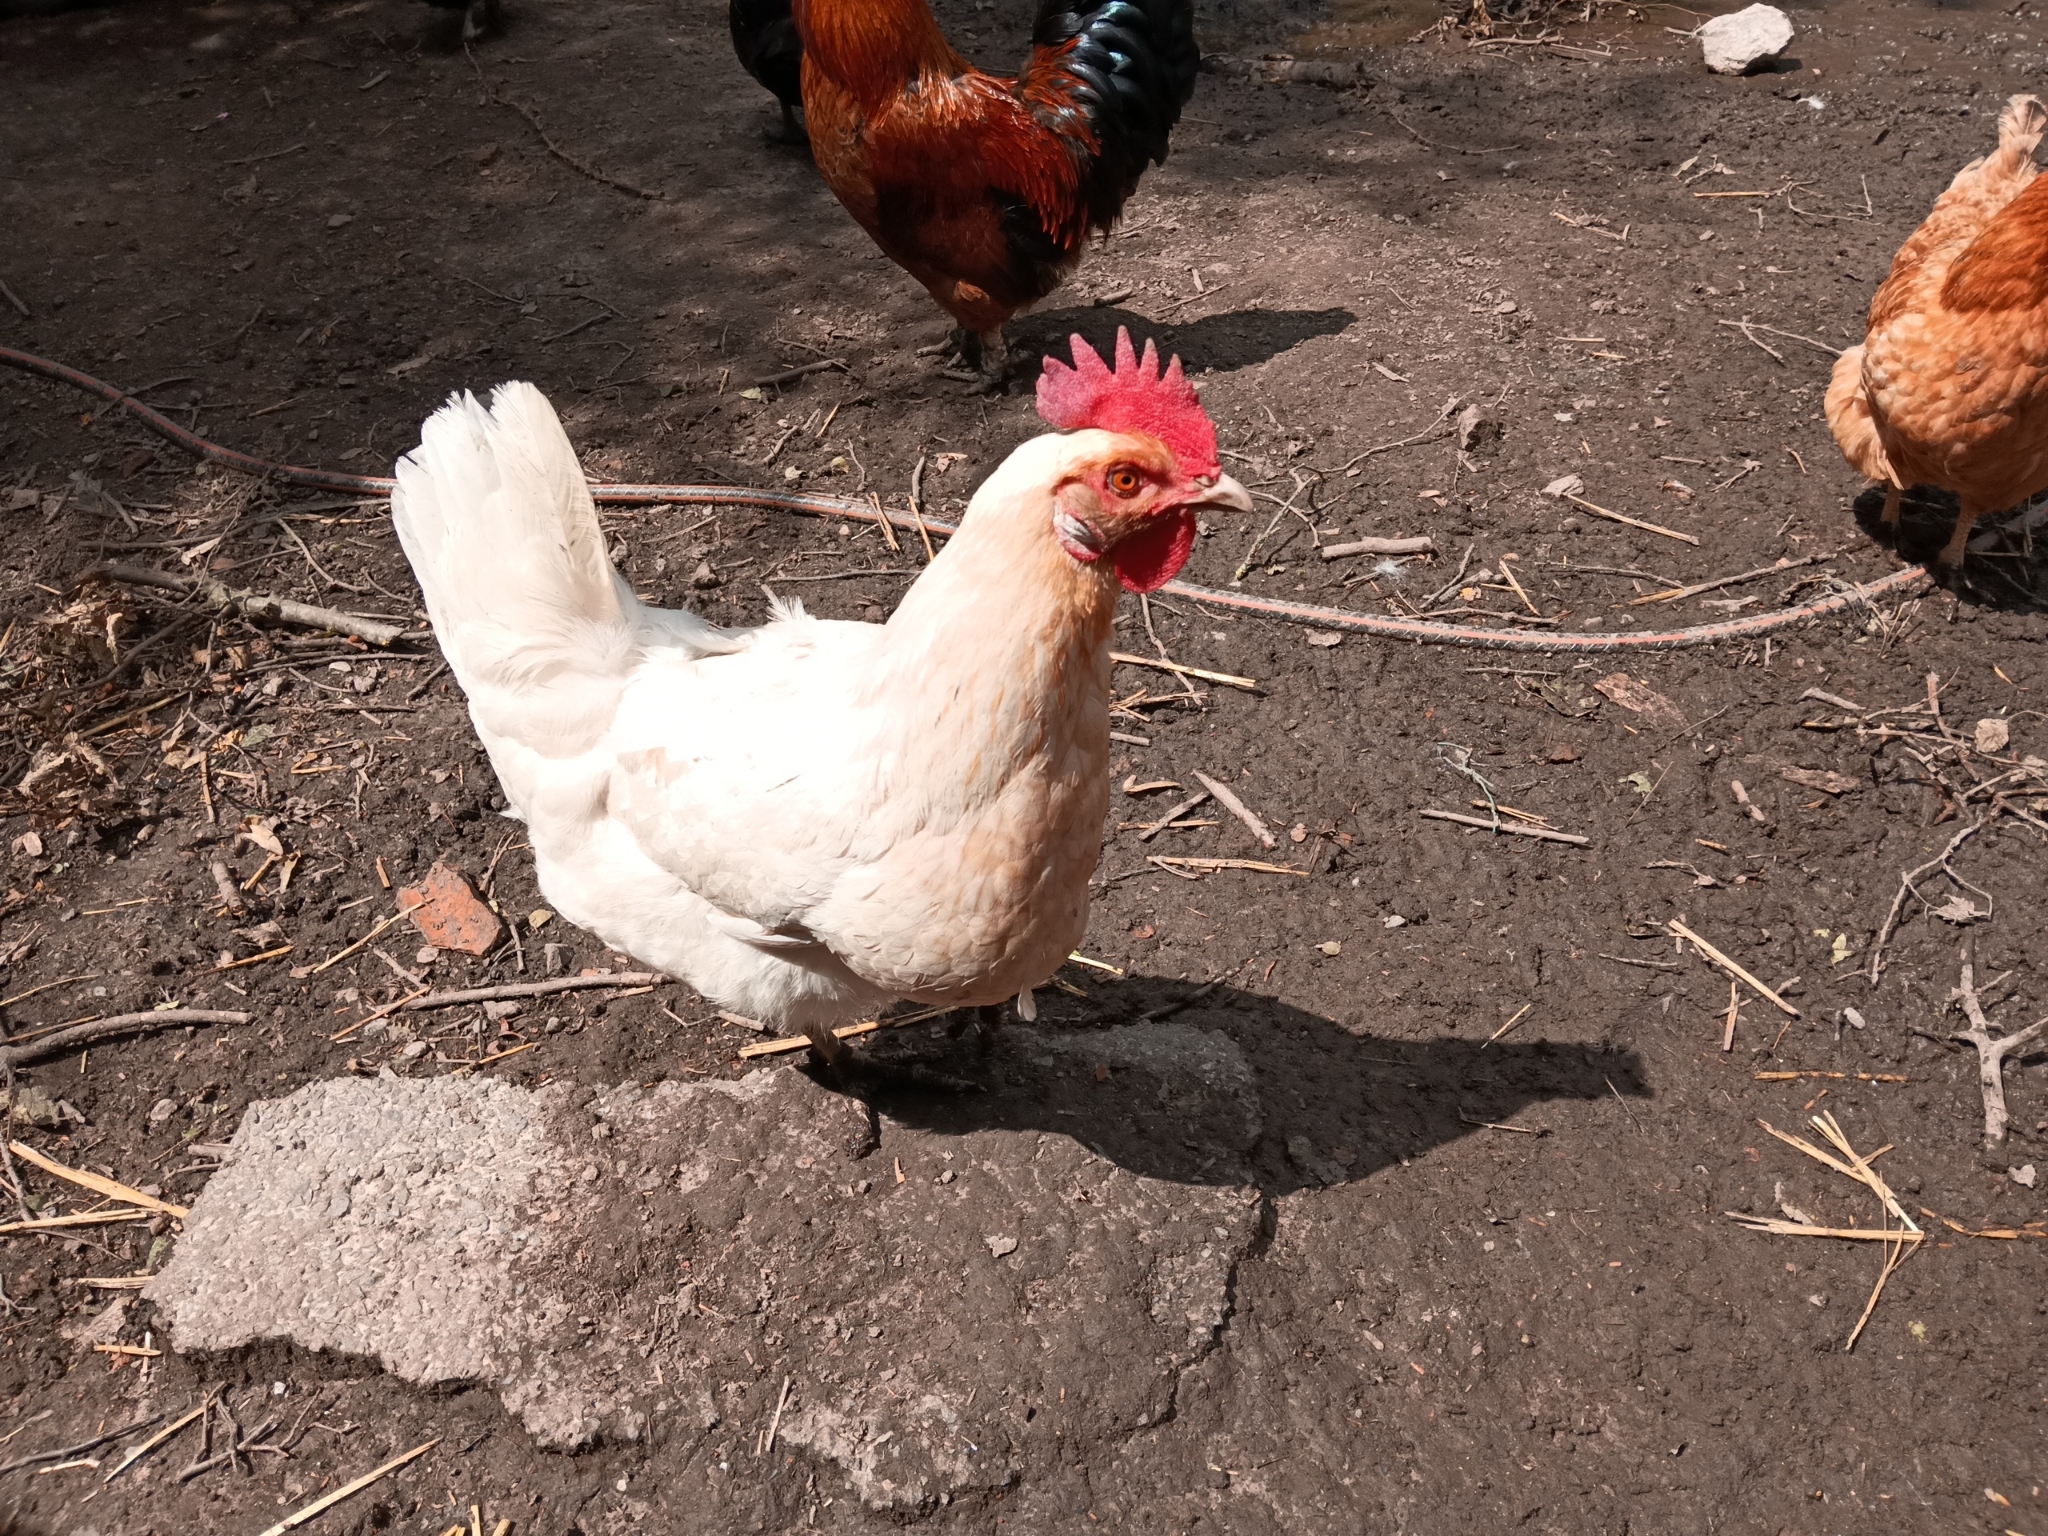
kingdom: Animalia
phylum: Chordata
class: Aves
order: Galliformes
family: Phasianidae
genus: Gallus
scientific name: Gallus gallus
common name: Red junglefowl
